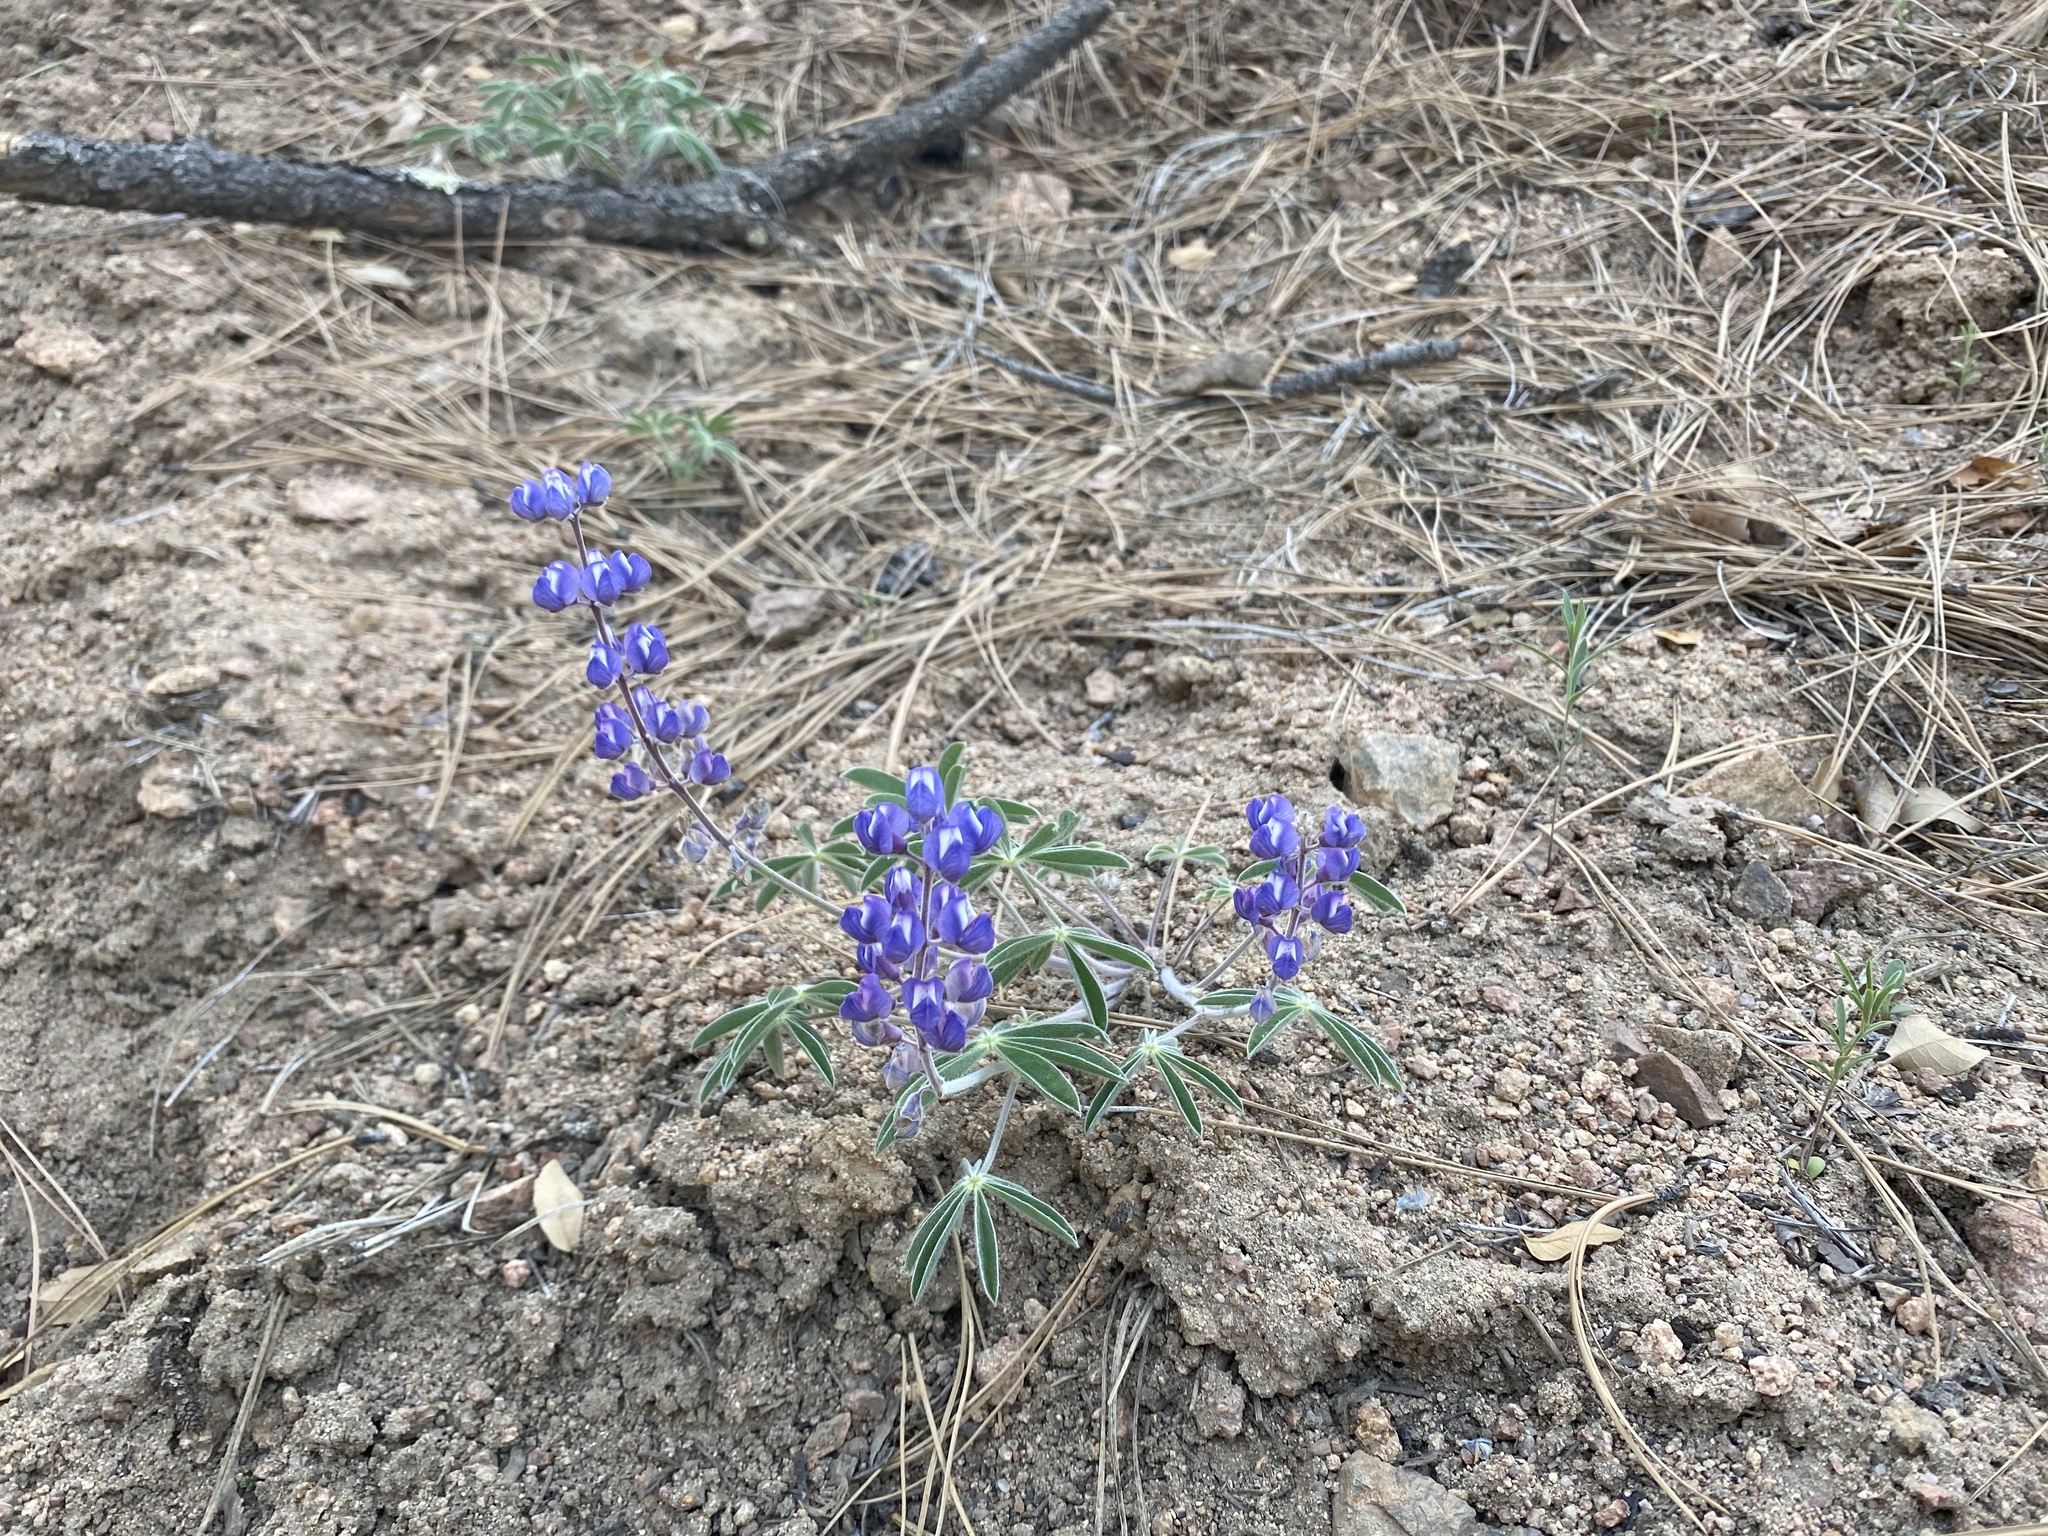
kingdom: Plantae
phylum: Tracheophyta
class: Magnoliopsida
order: Fabales
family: Fabaceae
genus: Lupinus
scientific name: Lupinus argenteus
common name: Silvery lupine
